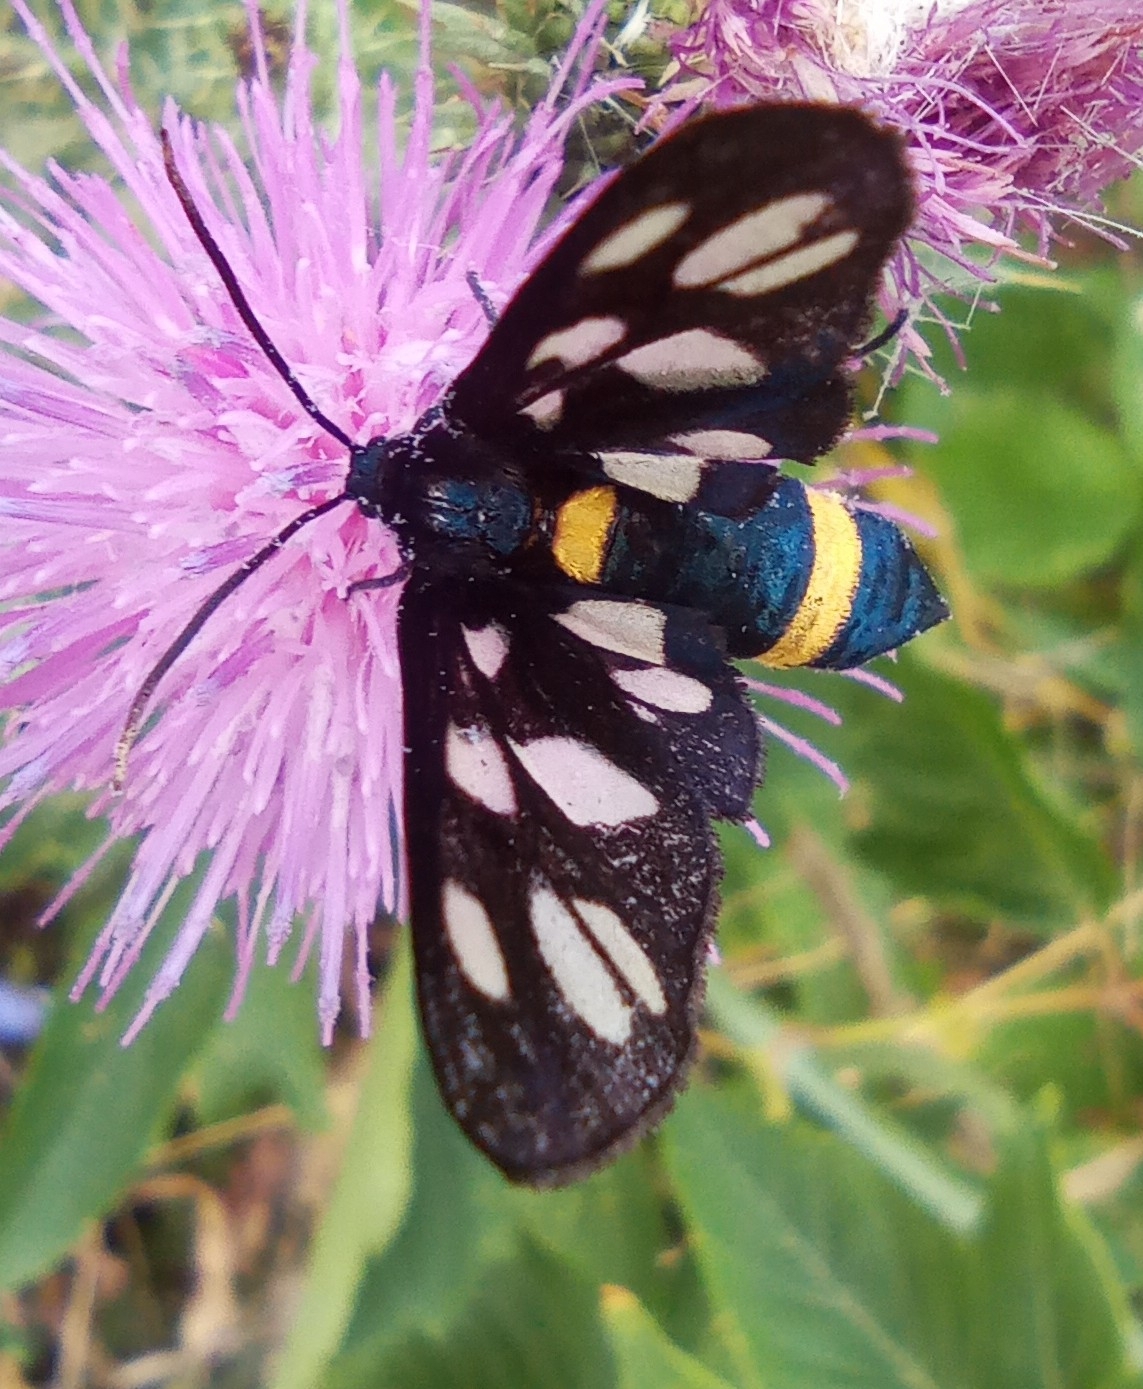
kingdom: Animalia
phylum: Arthropoda
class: Insecta
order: Lepidoptera
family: Erebidae
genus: Amata
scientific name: Amata nigricornis
